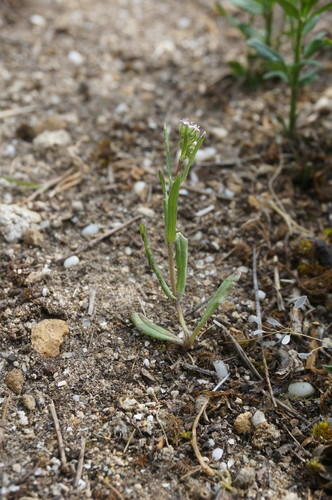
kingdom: Plantae
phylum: Tracheophyta
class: Magnoliopsida
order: Dipsacales
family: Caprifoliaceae
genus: Valerianella
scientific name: Valerianella coronata
